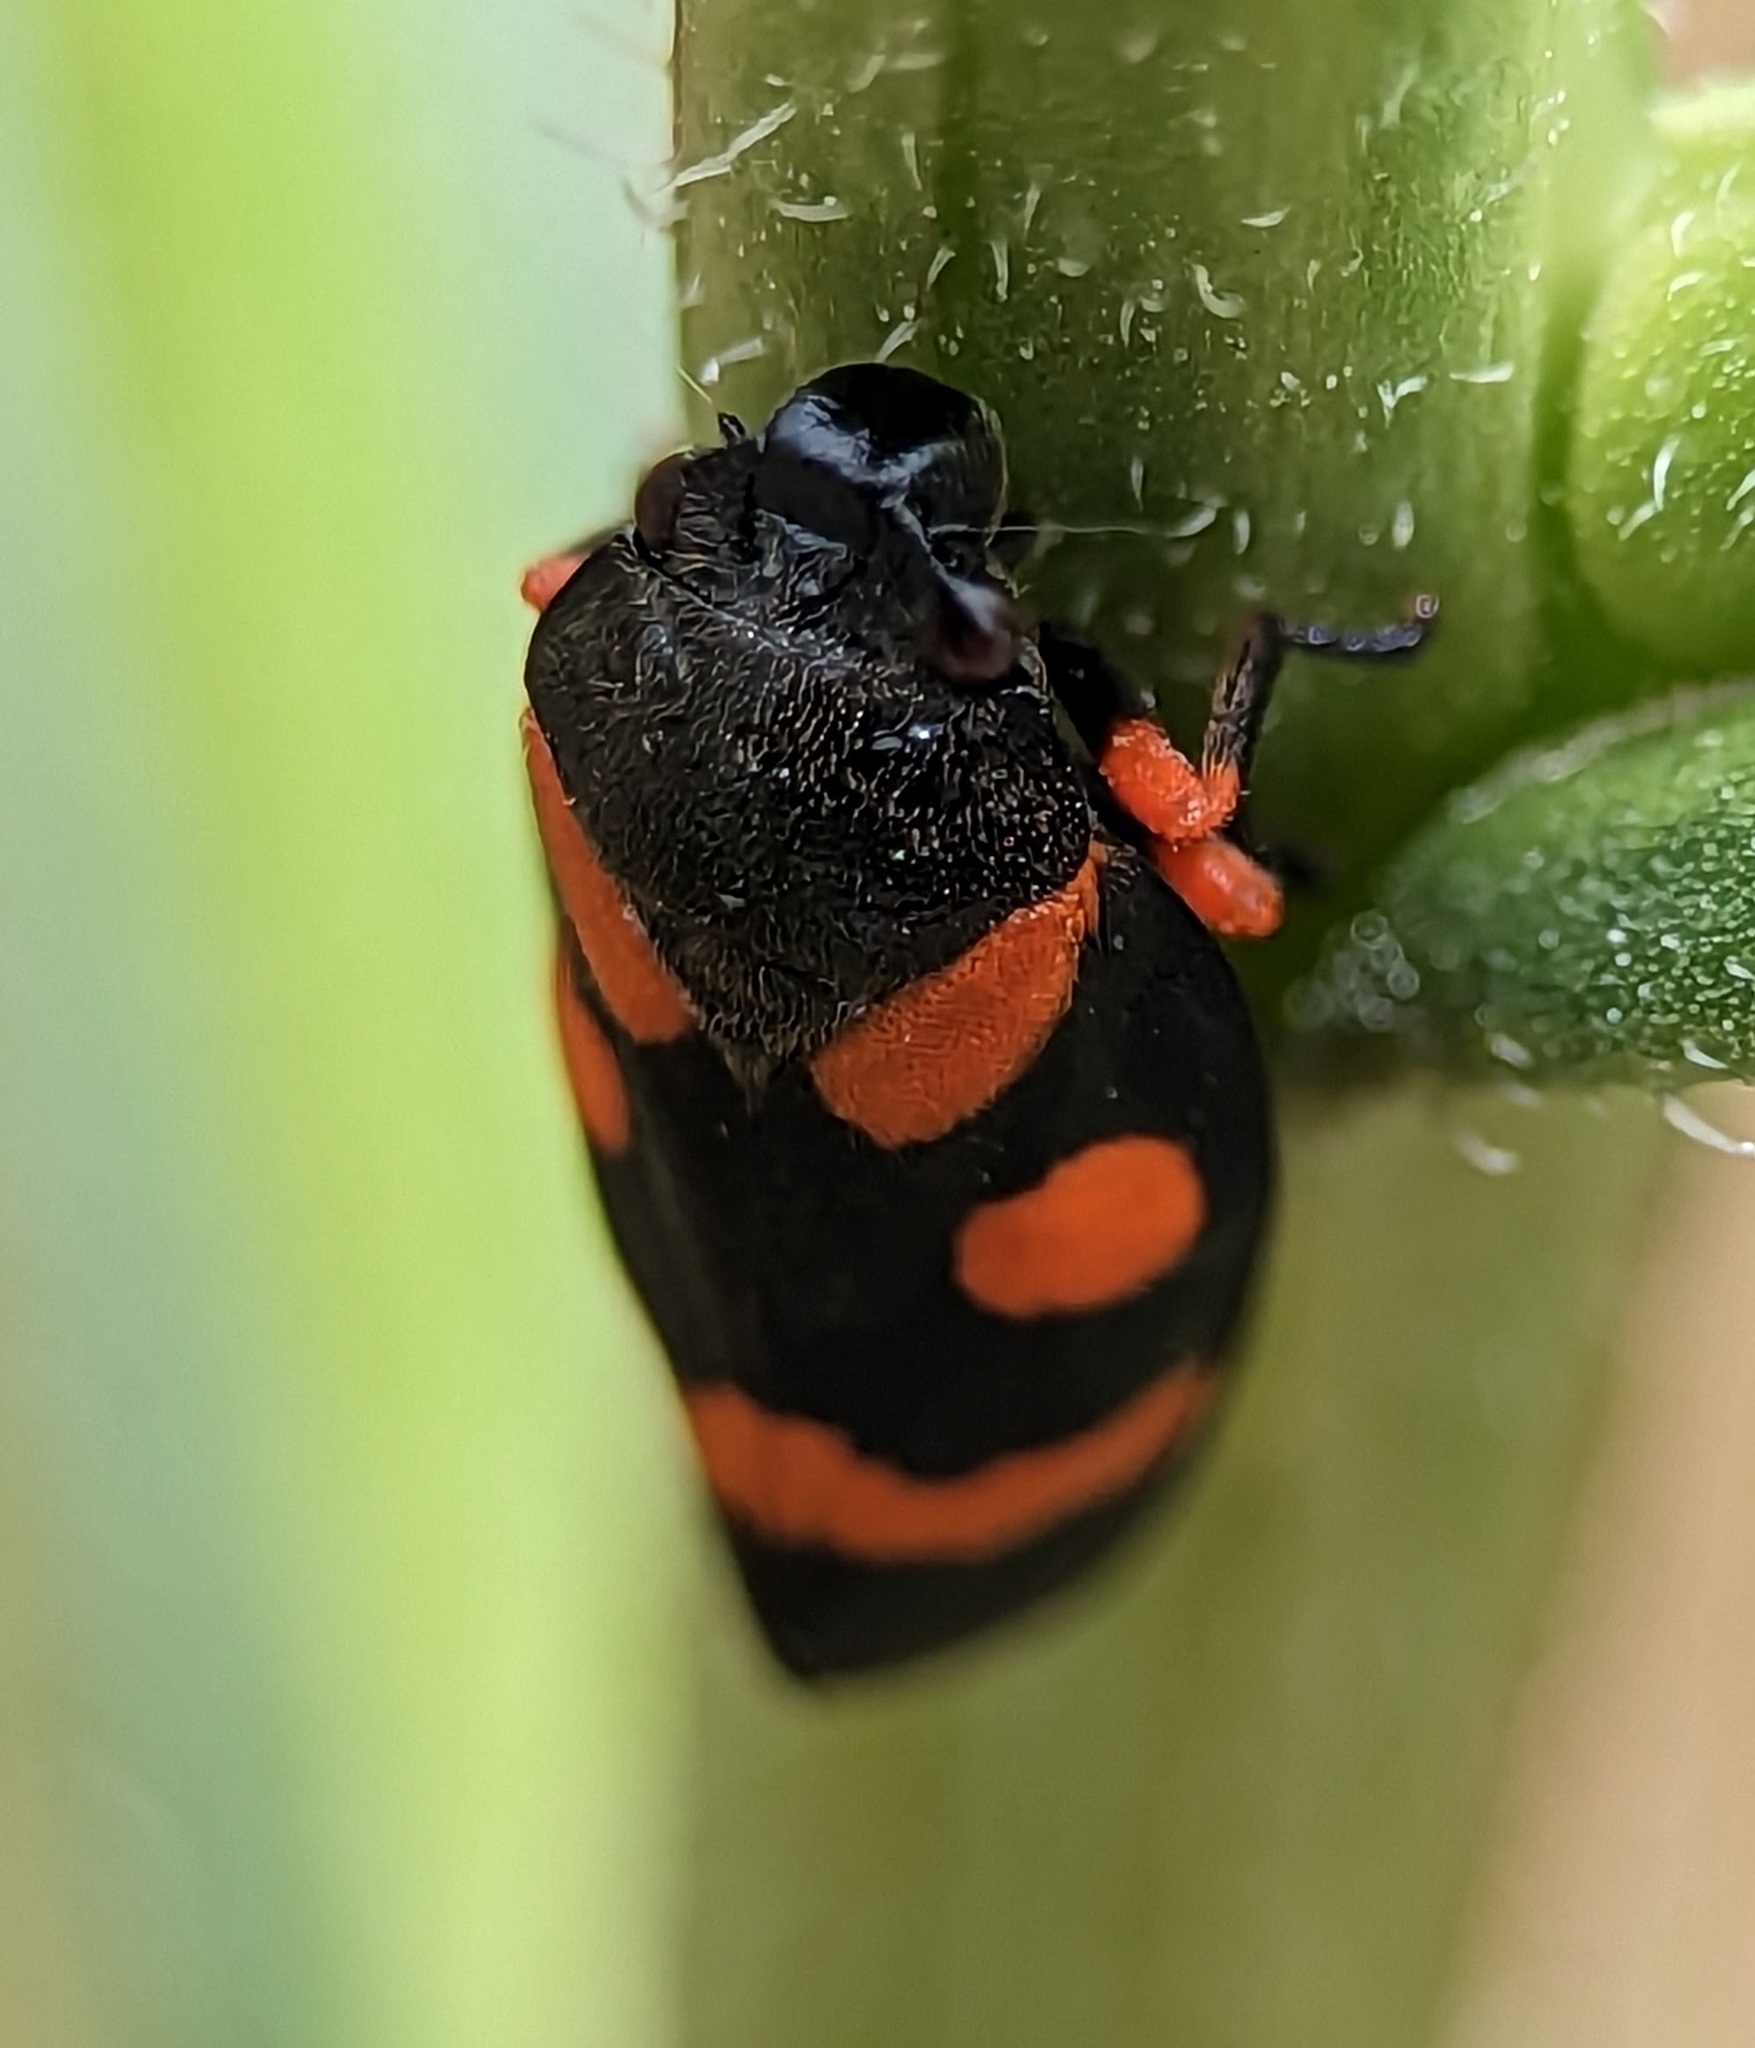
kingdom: Animalia
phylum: Arthropoda
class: Insecta
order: Hemiptera
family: Cercopidae
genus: Cercopis
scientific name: Cercopis intermedia
